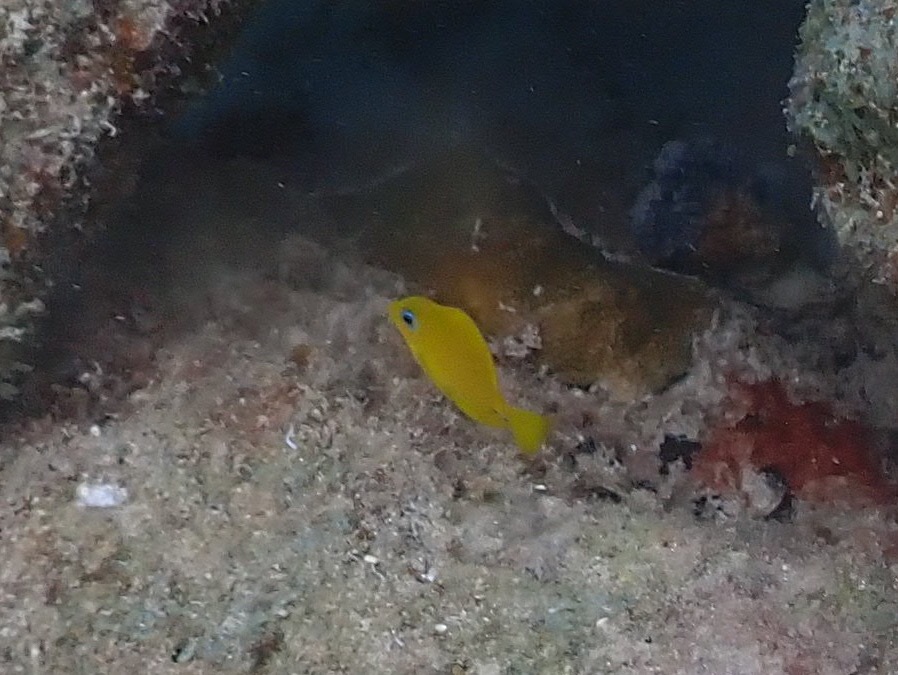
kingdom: Animalia
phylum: Chordata
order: Perciformes
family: Acanthuridae
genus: Acanthurus
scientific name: Acanthurus coeruleus
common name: Blue tang
